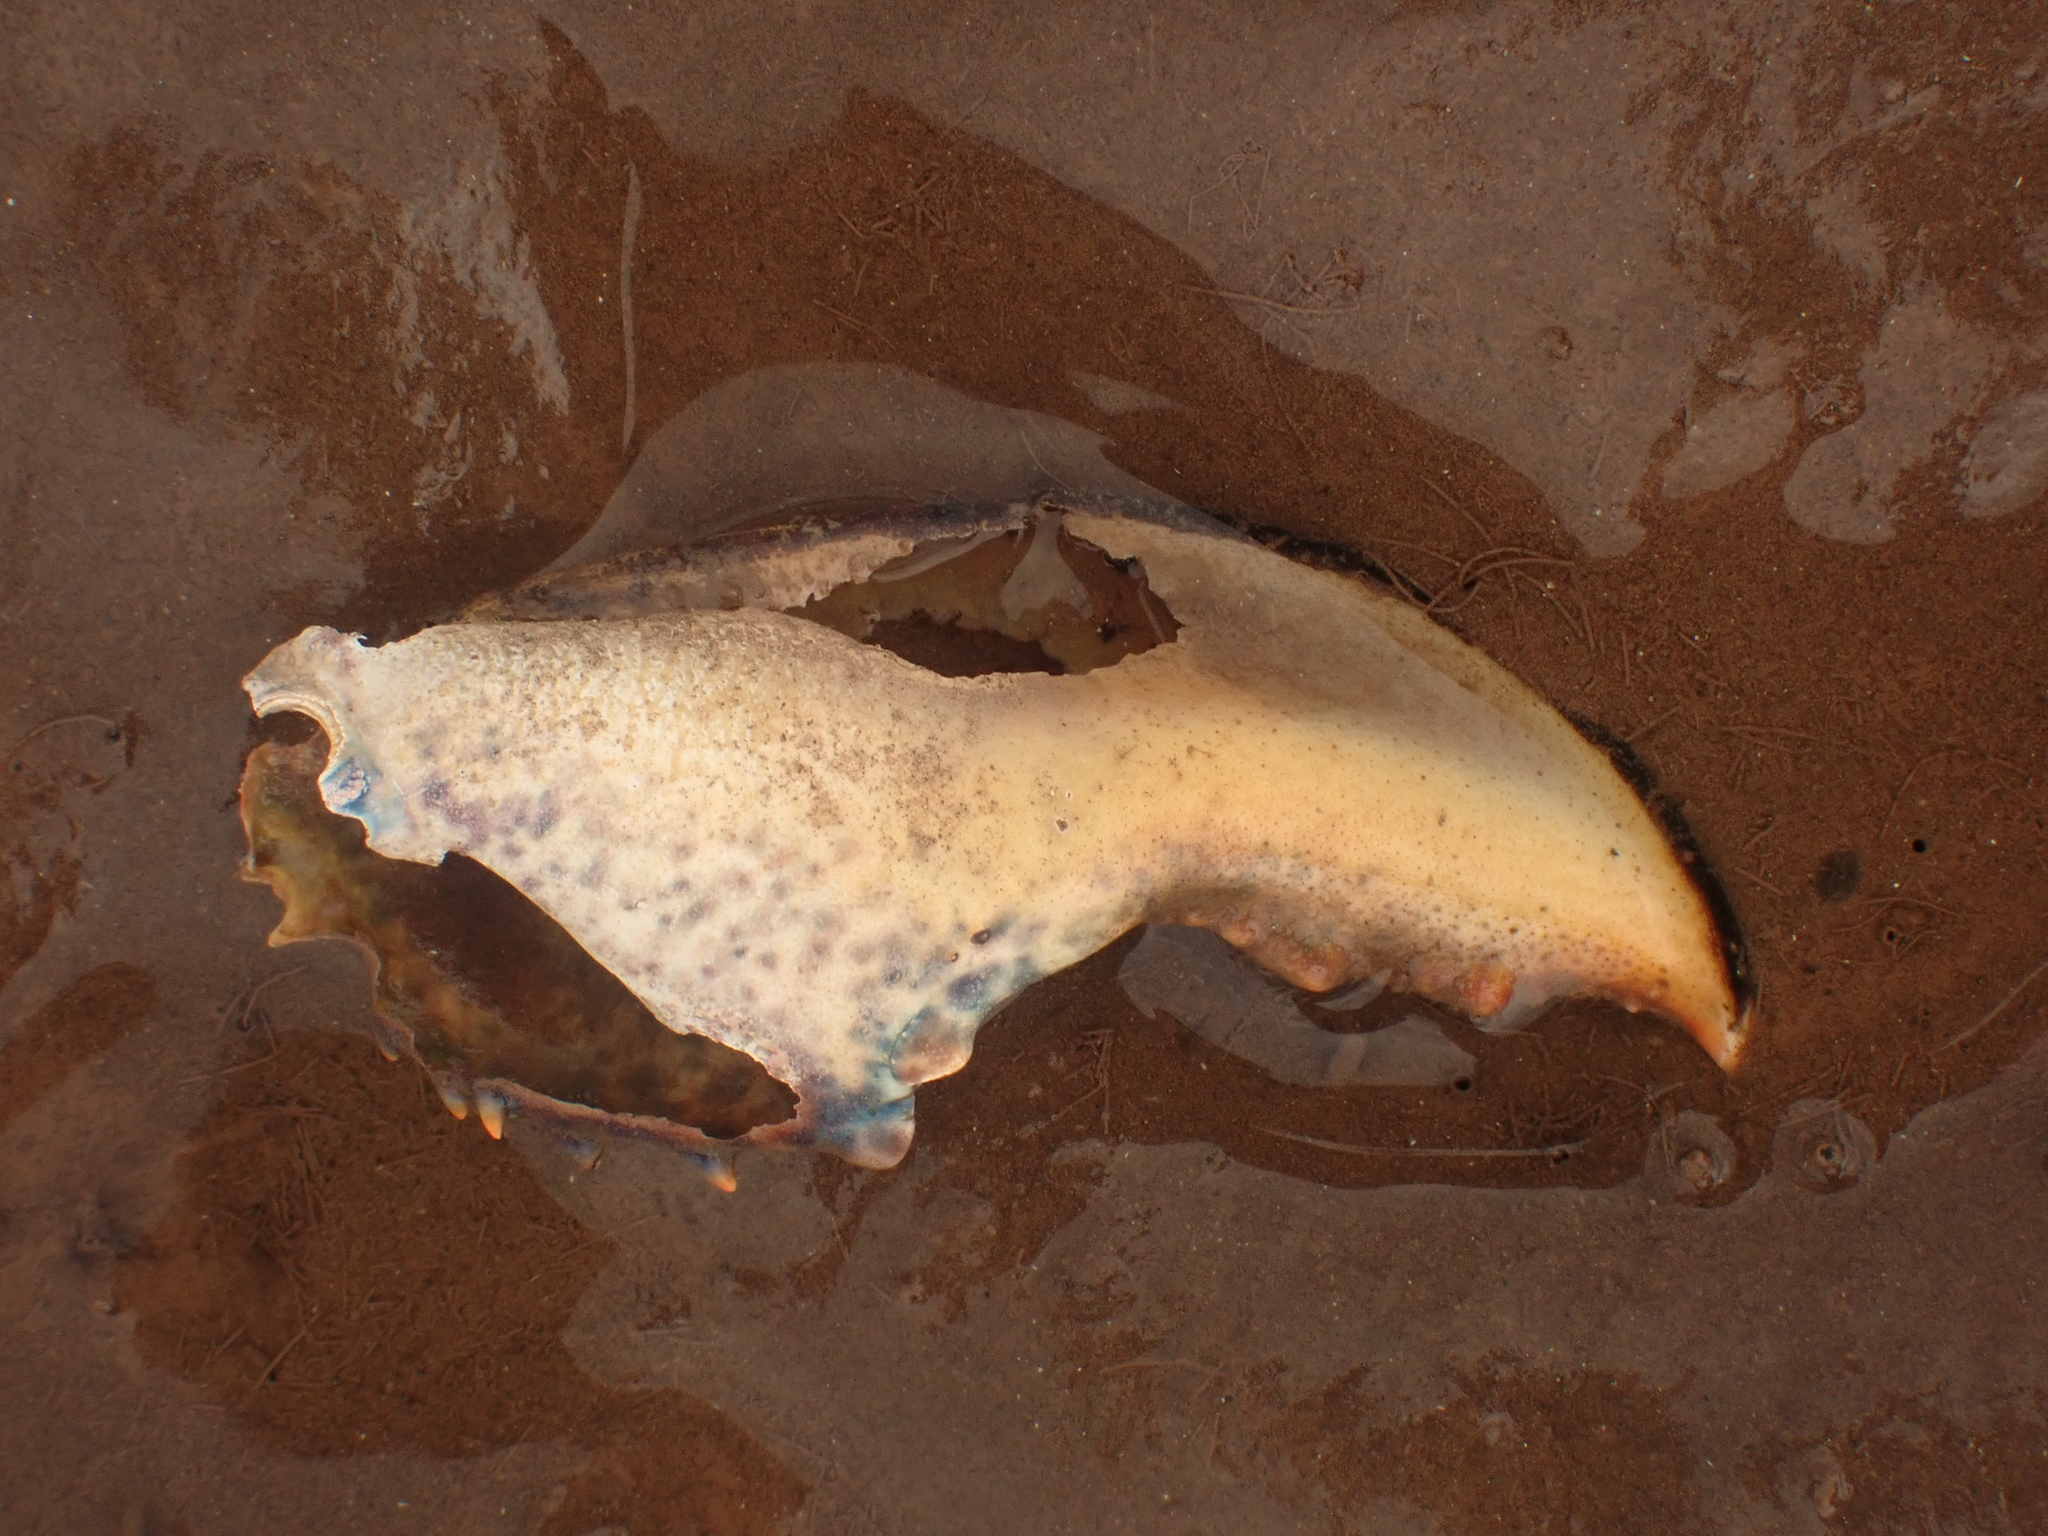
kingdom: Animalia
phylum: Arthropoda
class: Malacostraca
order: Decapoda
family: Nephropidae
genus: Homarus
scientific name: Homarus americanus
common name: American lobster
